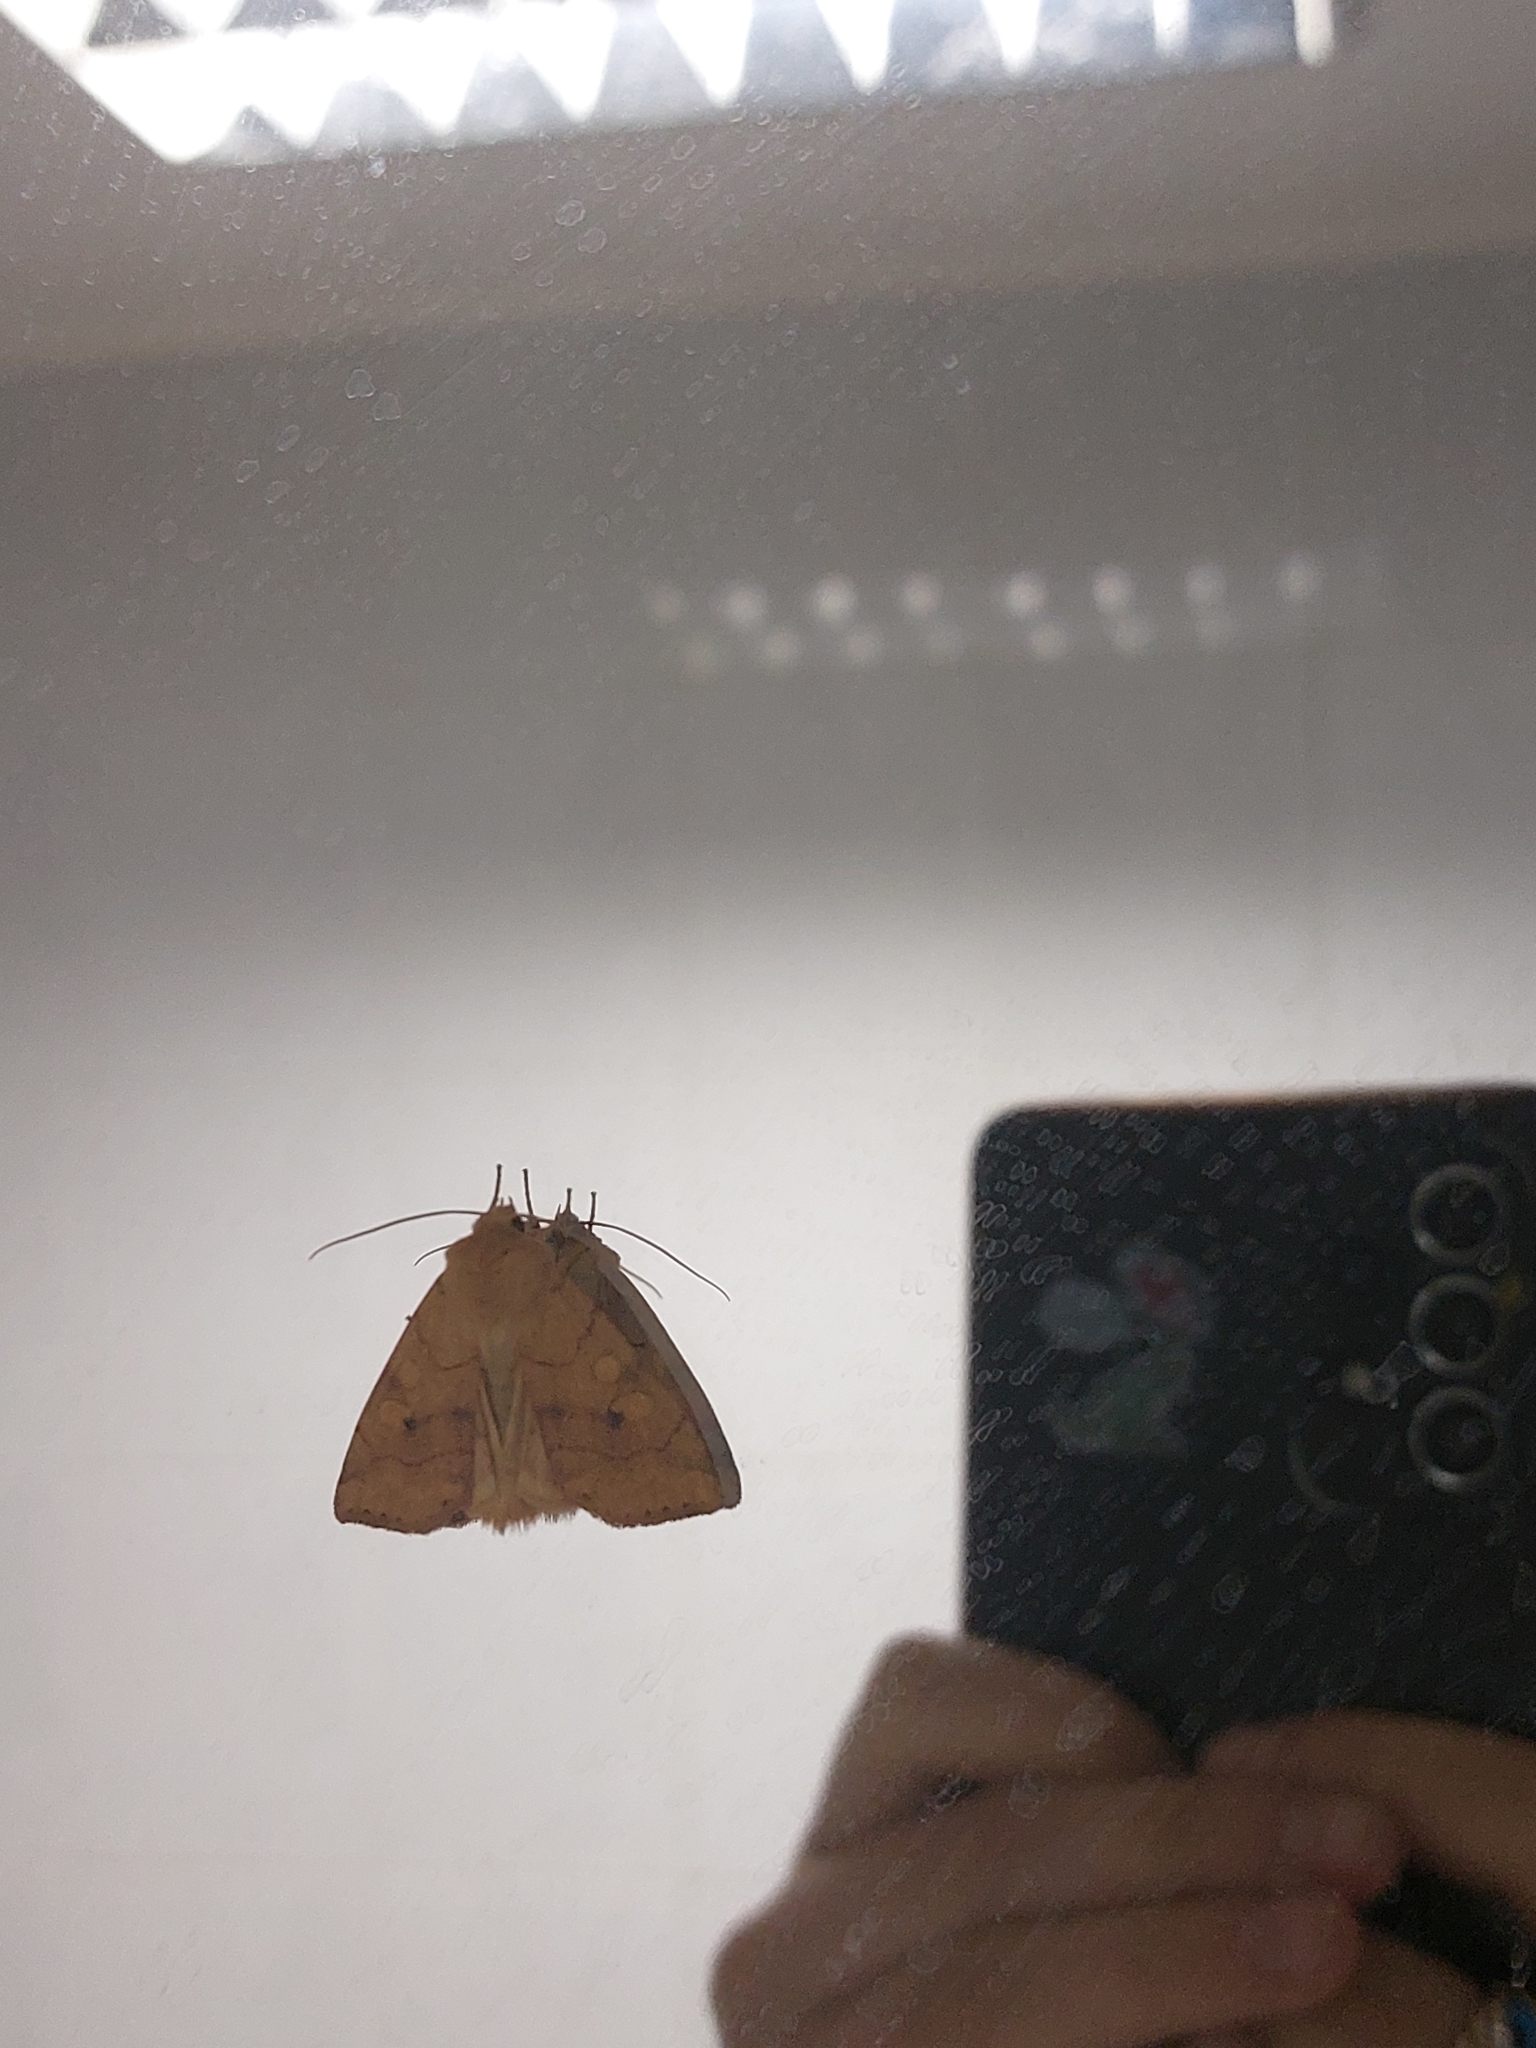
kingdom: Animalia
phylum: Arthropoda
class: Insecta
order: Lepidoptera
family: Noctuidae
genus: Enargia
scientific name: Enargia paleacea
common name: Angle-striped sallow
